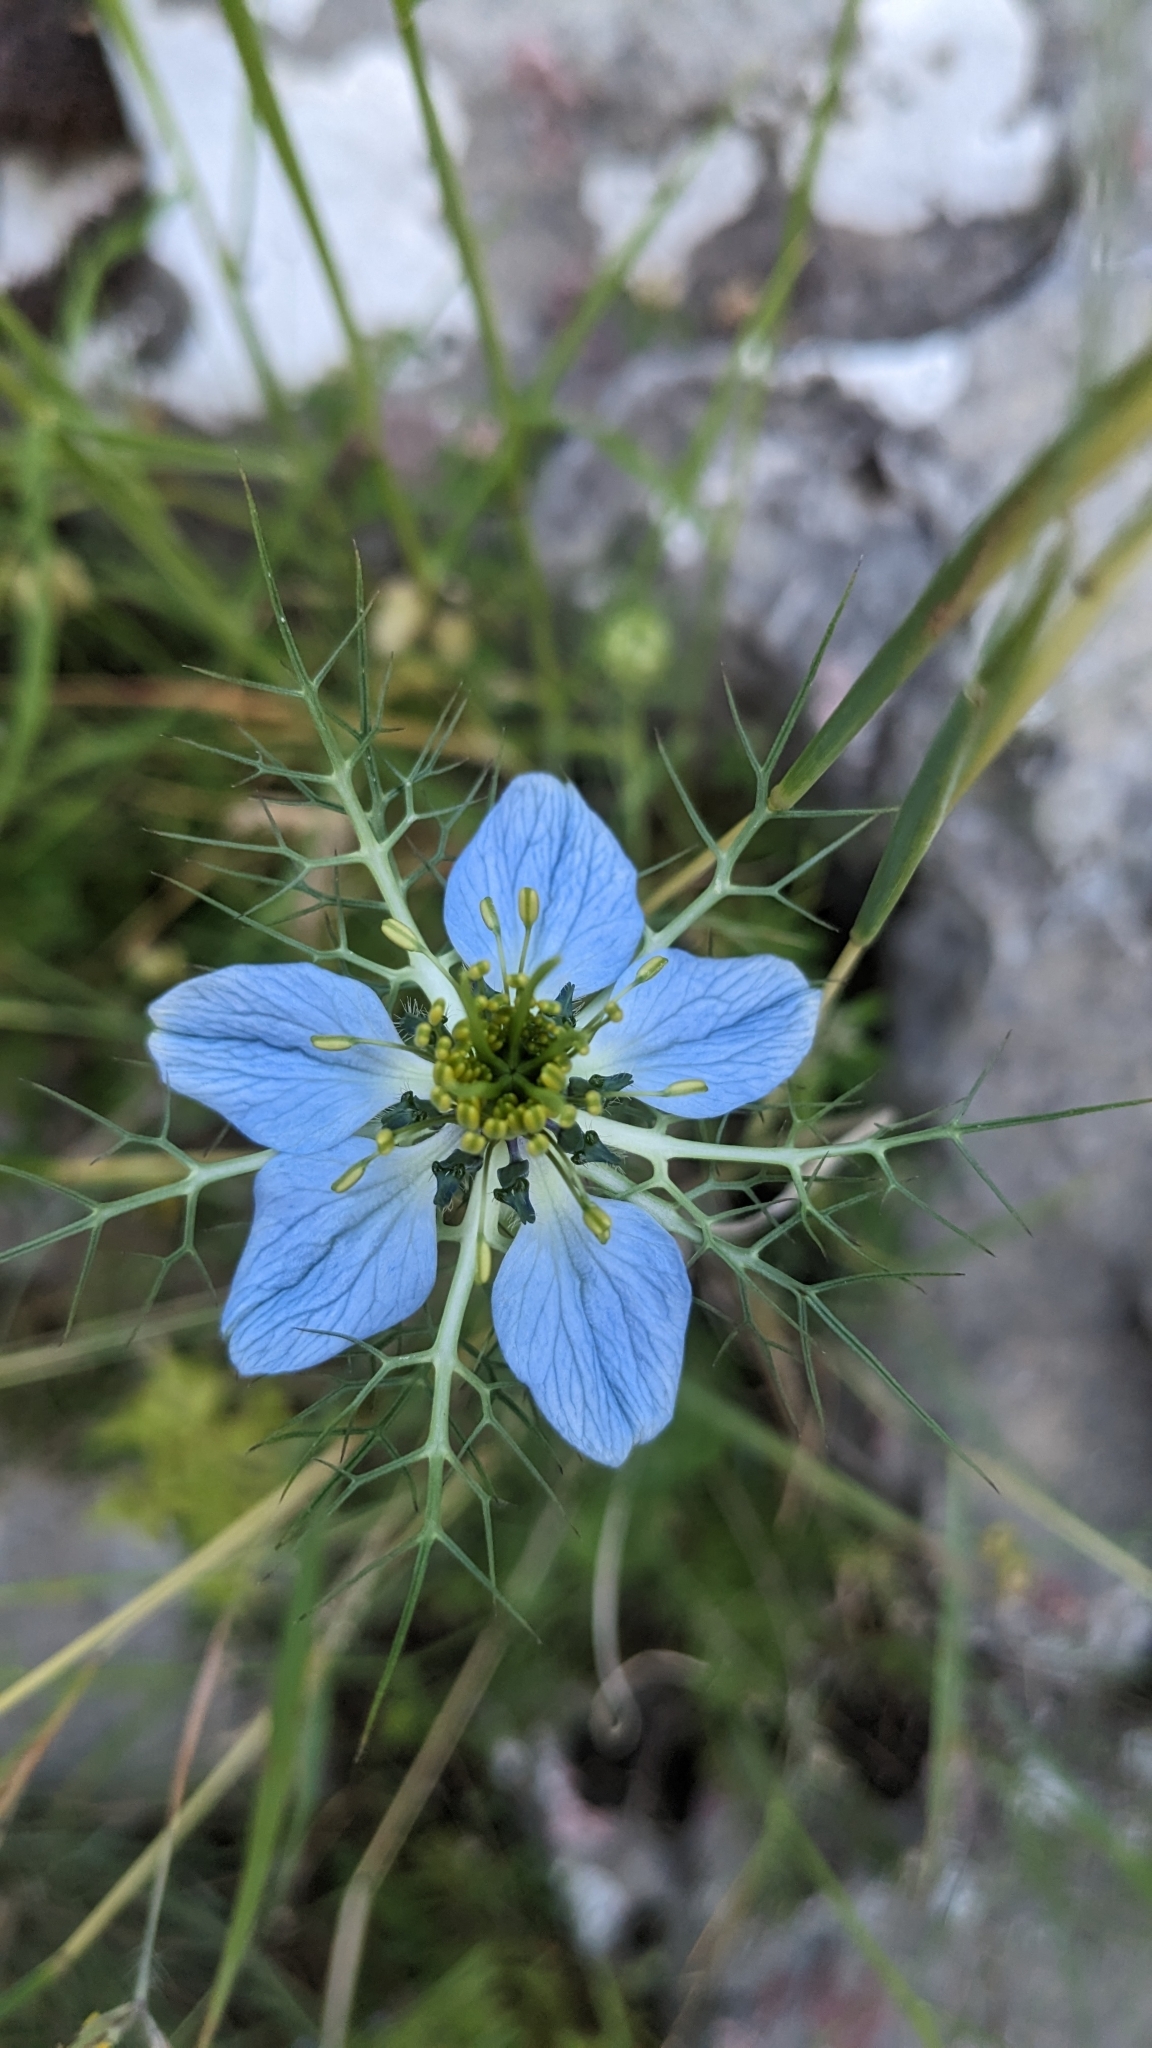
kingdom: Plantae
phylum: Tracheophyta
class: Magnoliopsida
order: Ranunculales
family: Ranunculaceae
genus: Nigella
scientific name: Nigella damascena
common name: Love-in-a-mist
